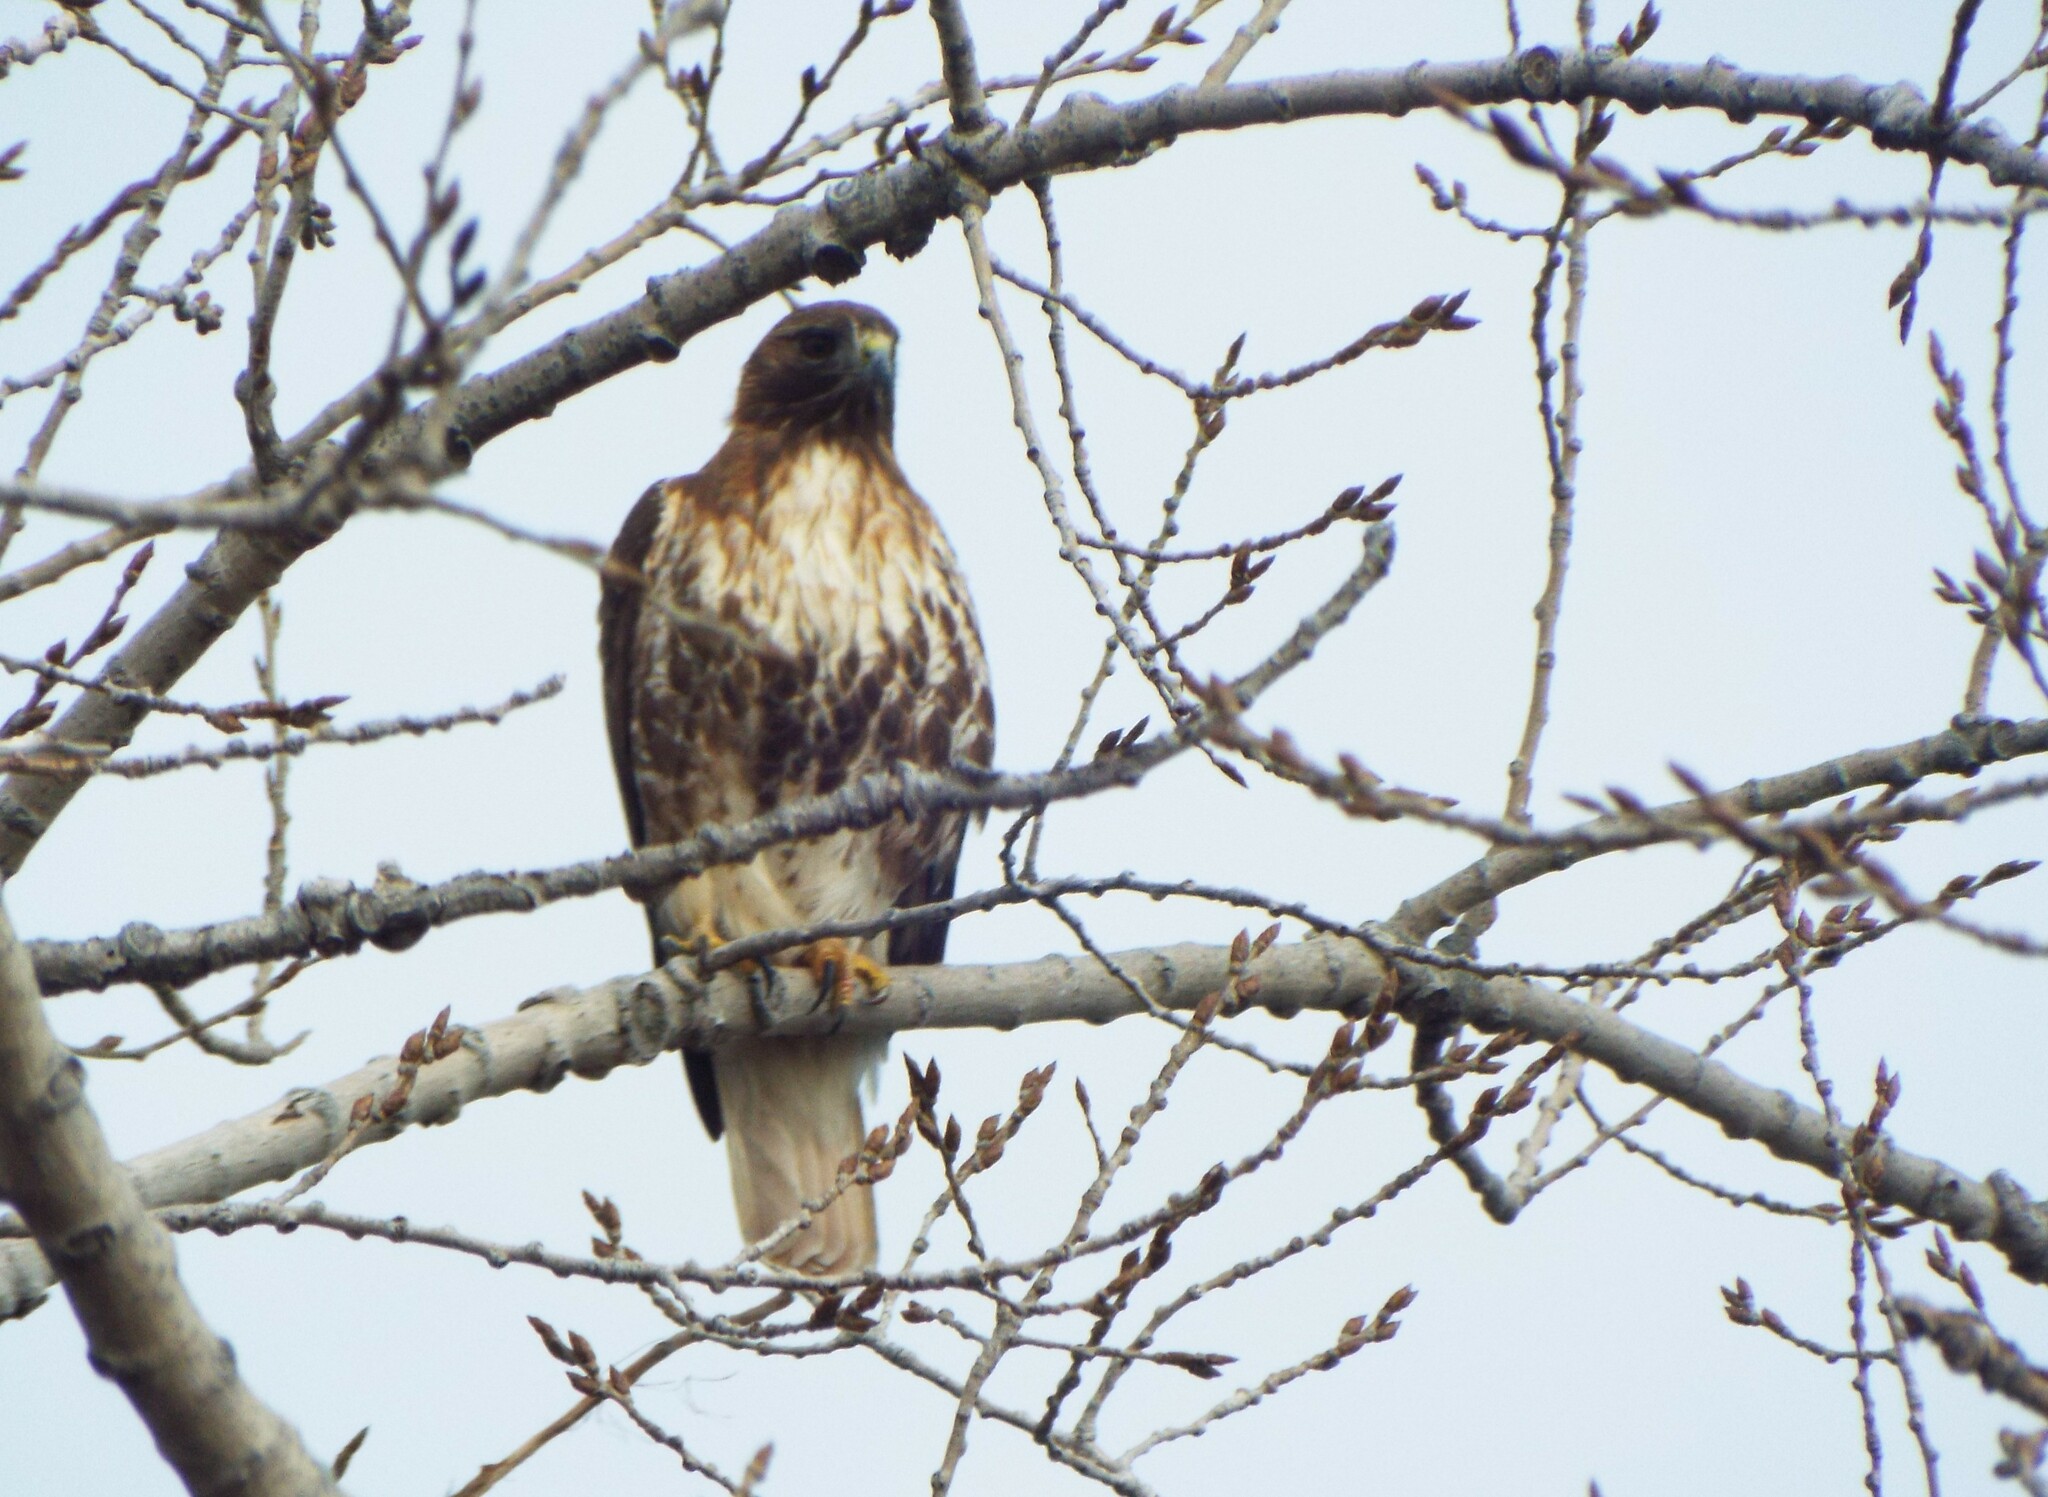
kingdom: Animalia
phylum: Chordata
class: Aves
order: Accipitriformes
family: Accipitridae
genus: Buteo
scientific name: Buteo jamaicensis
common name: Red-tailed hawk
